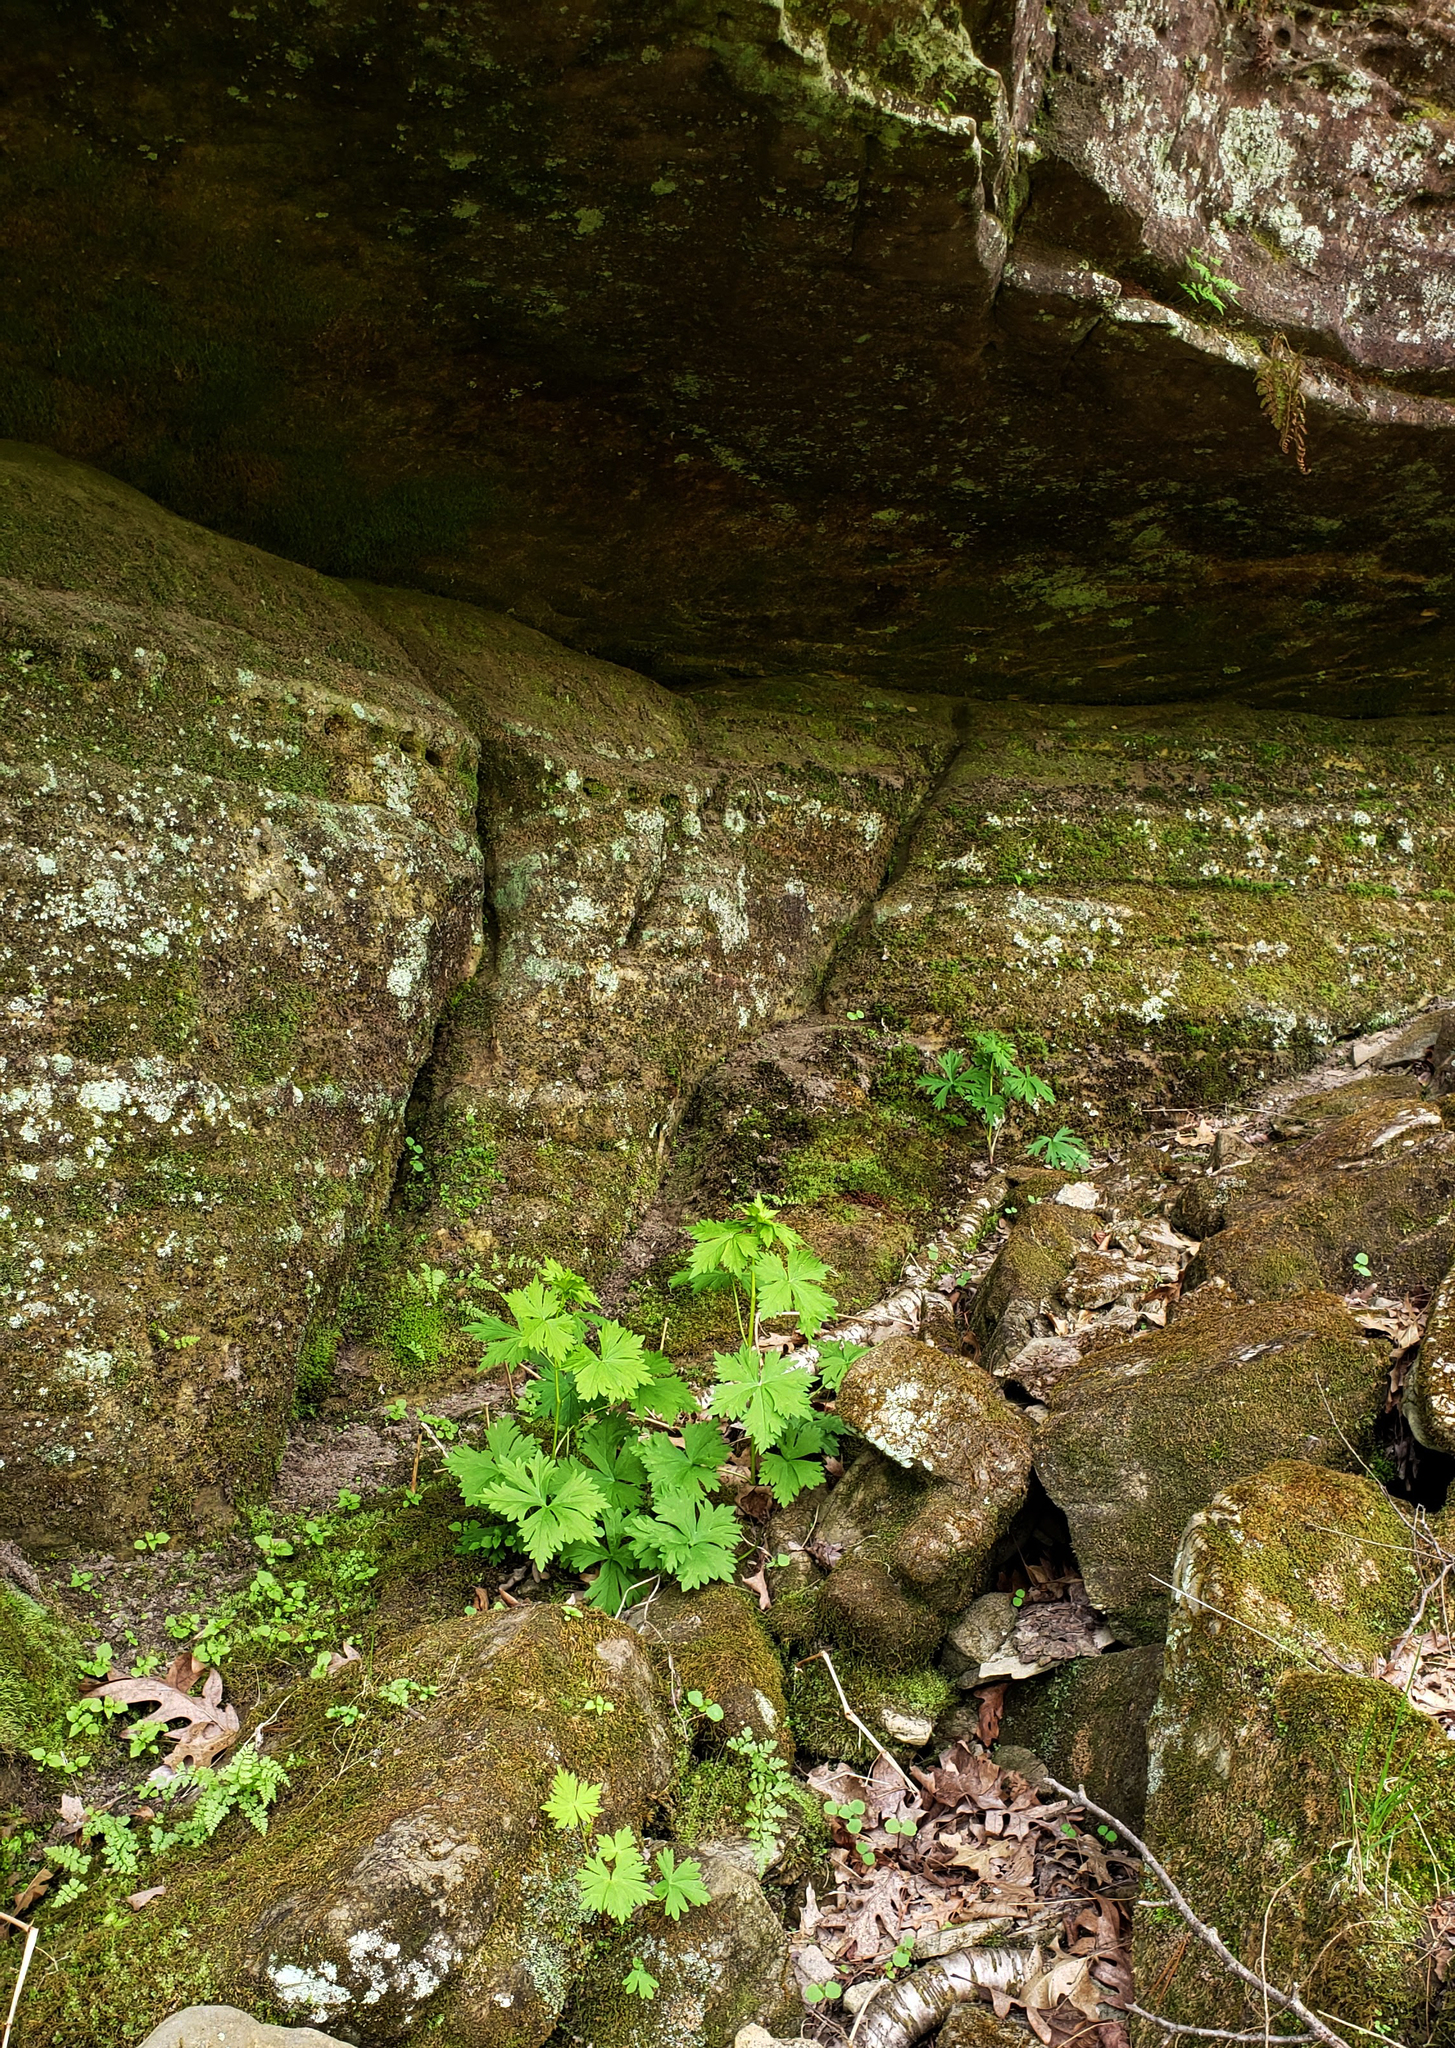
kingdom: Plantae
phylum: Tracheophyta
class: Magnoliopsida
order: Ranunculales
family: Ranunculaceae
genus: Aconitum
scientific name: Aconitum noveboracense
